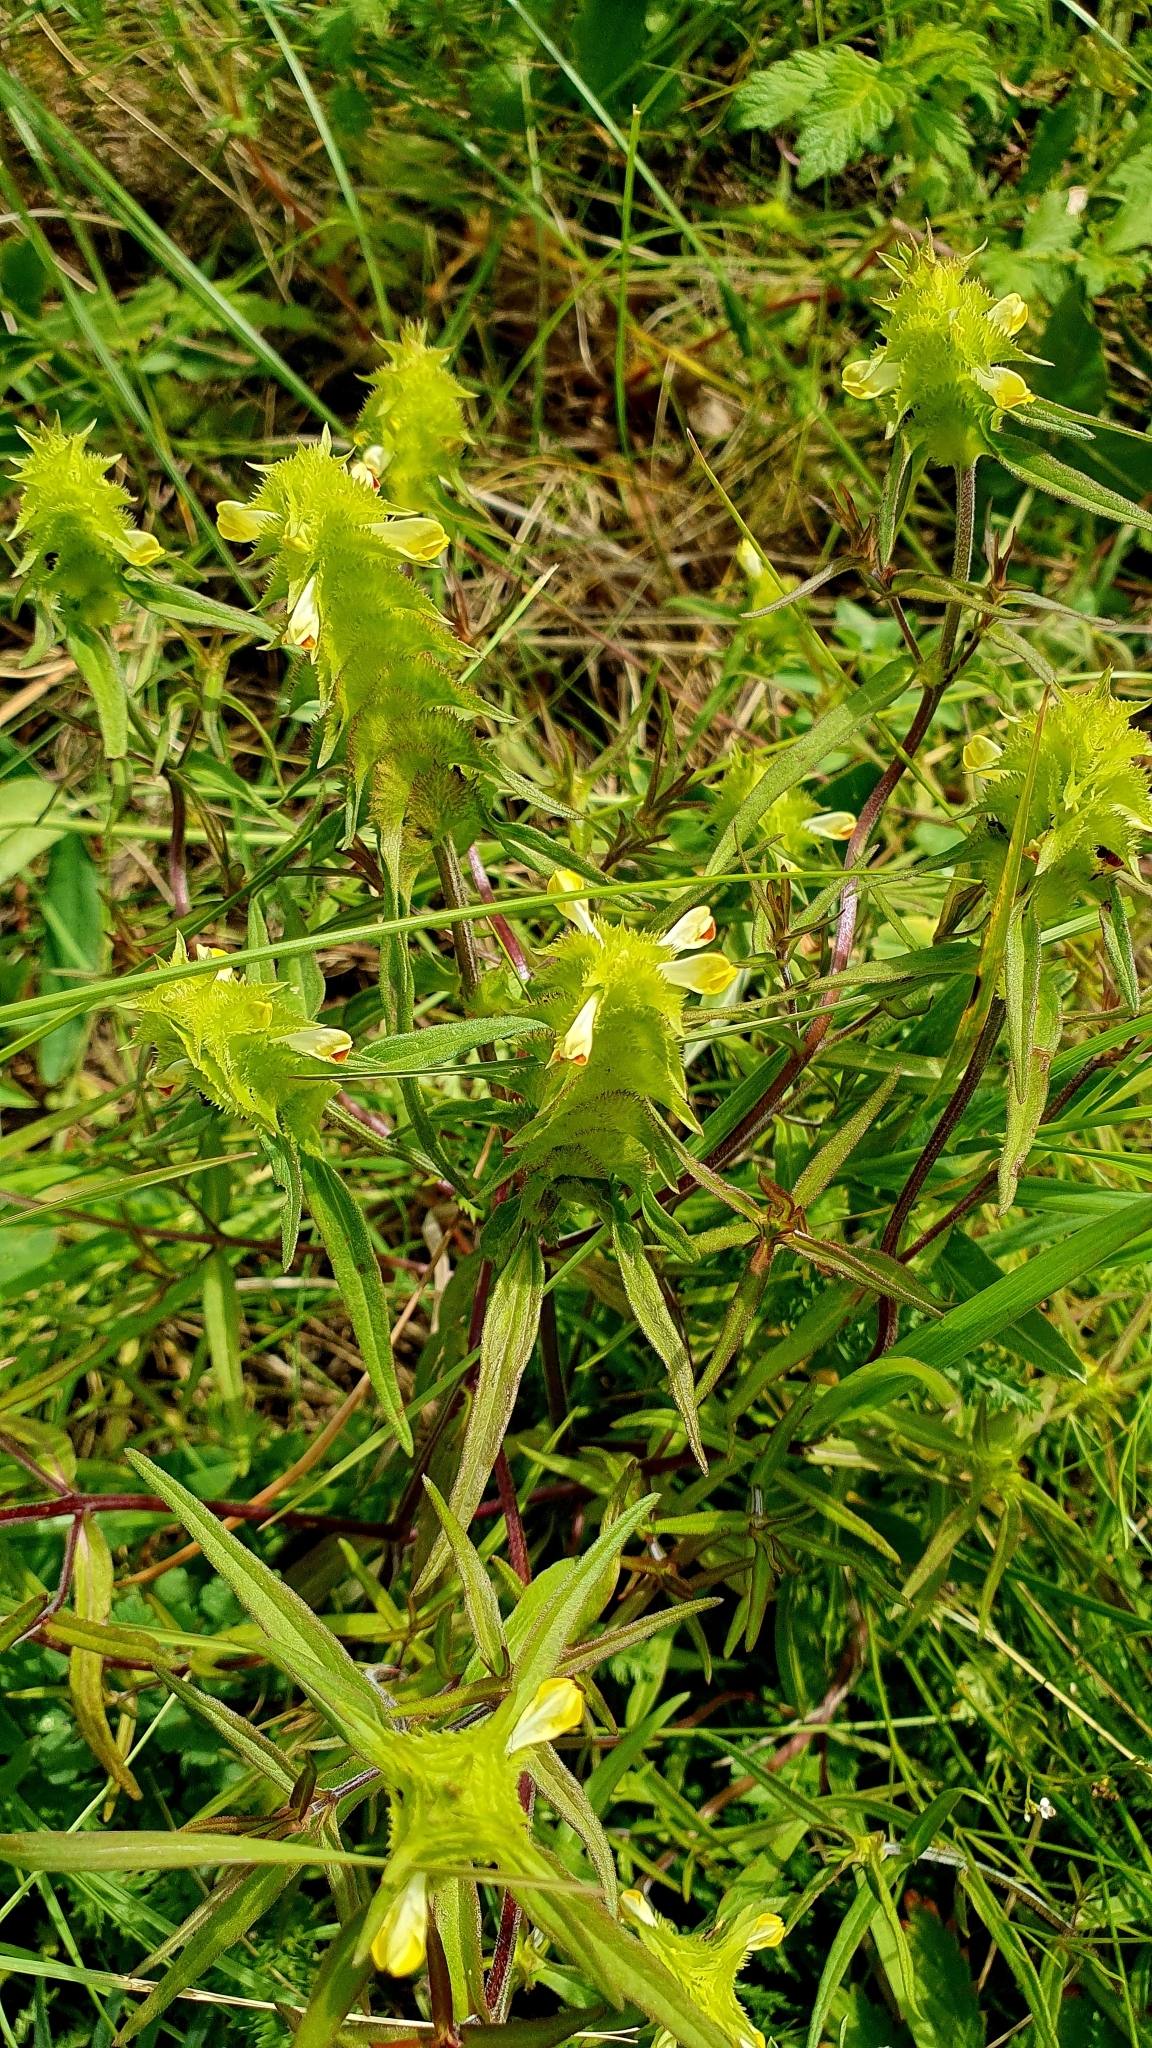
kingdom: Plantae
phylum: Tracheophyta
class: Magnoliopsida
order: Lamiales
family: Orobanchaceae
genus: Melampyrum
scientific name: Melampyrum cristatum
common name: Crested cow-wheat
